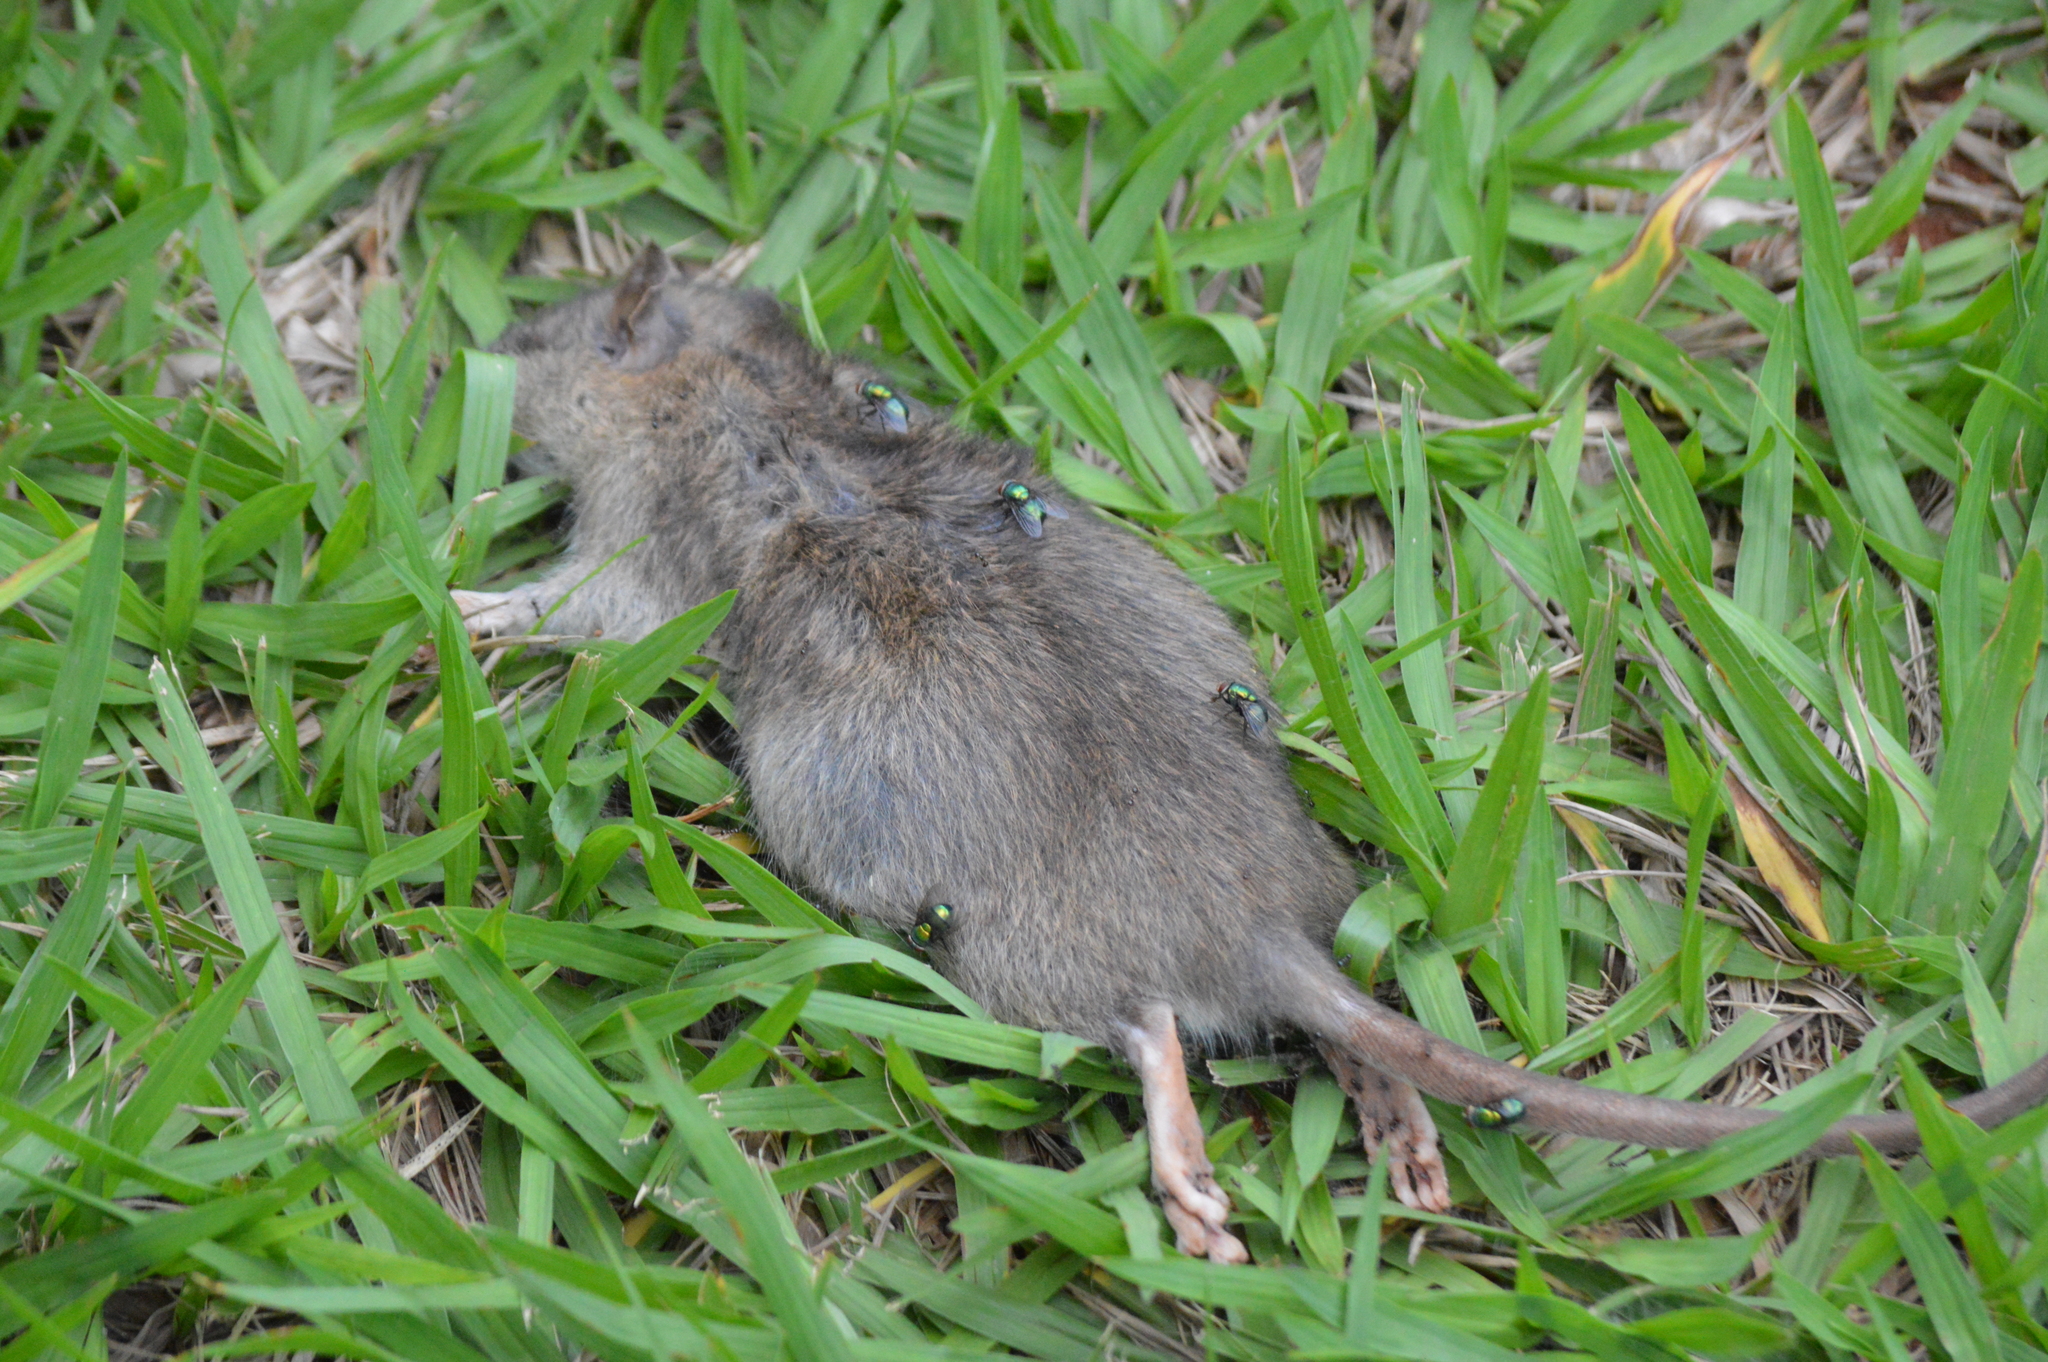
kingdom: Animalia
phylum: Chordata
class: Mammalia
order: Rodentia
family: Muridae
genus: Rattus
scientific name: Rattus norvegicus
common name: Brown rat
